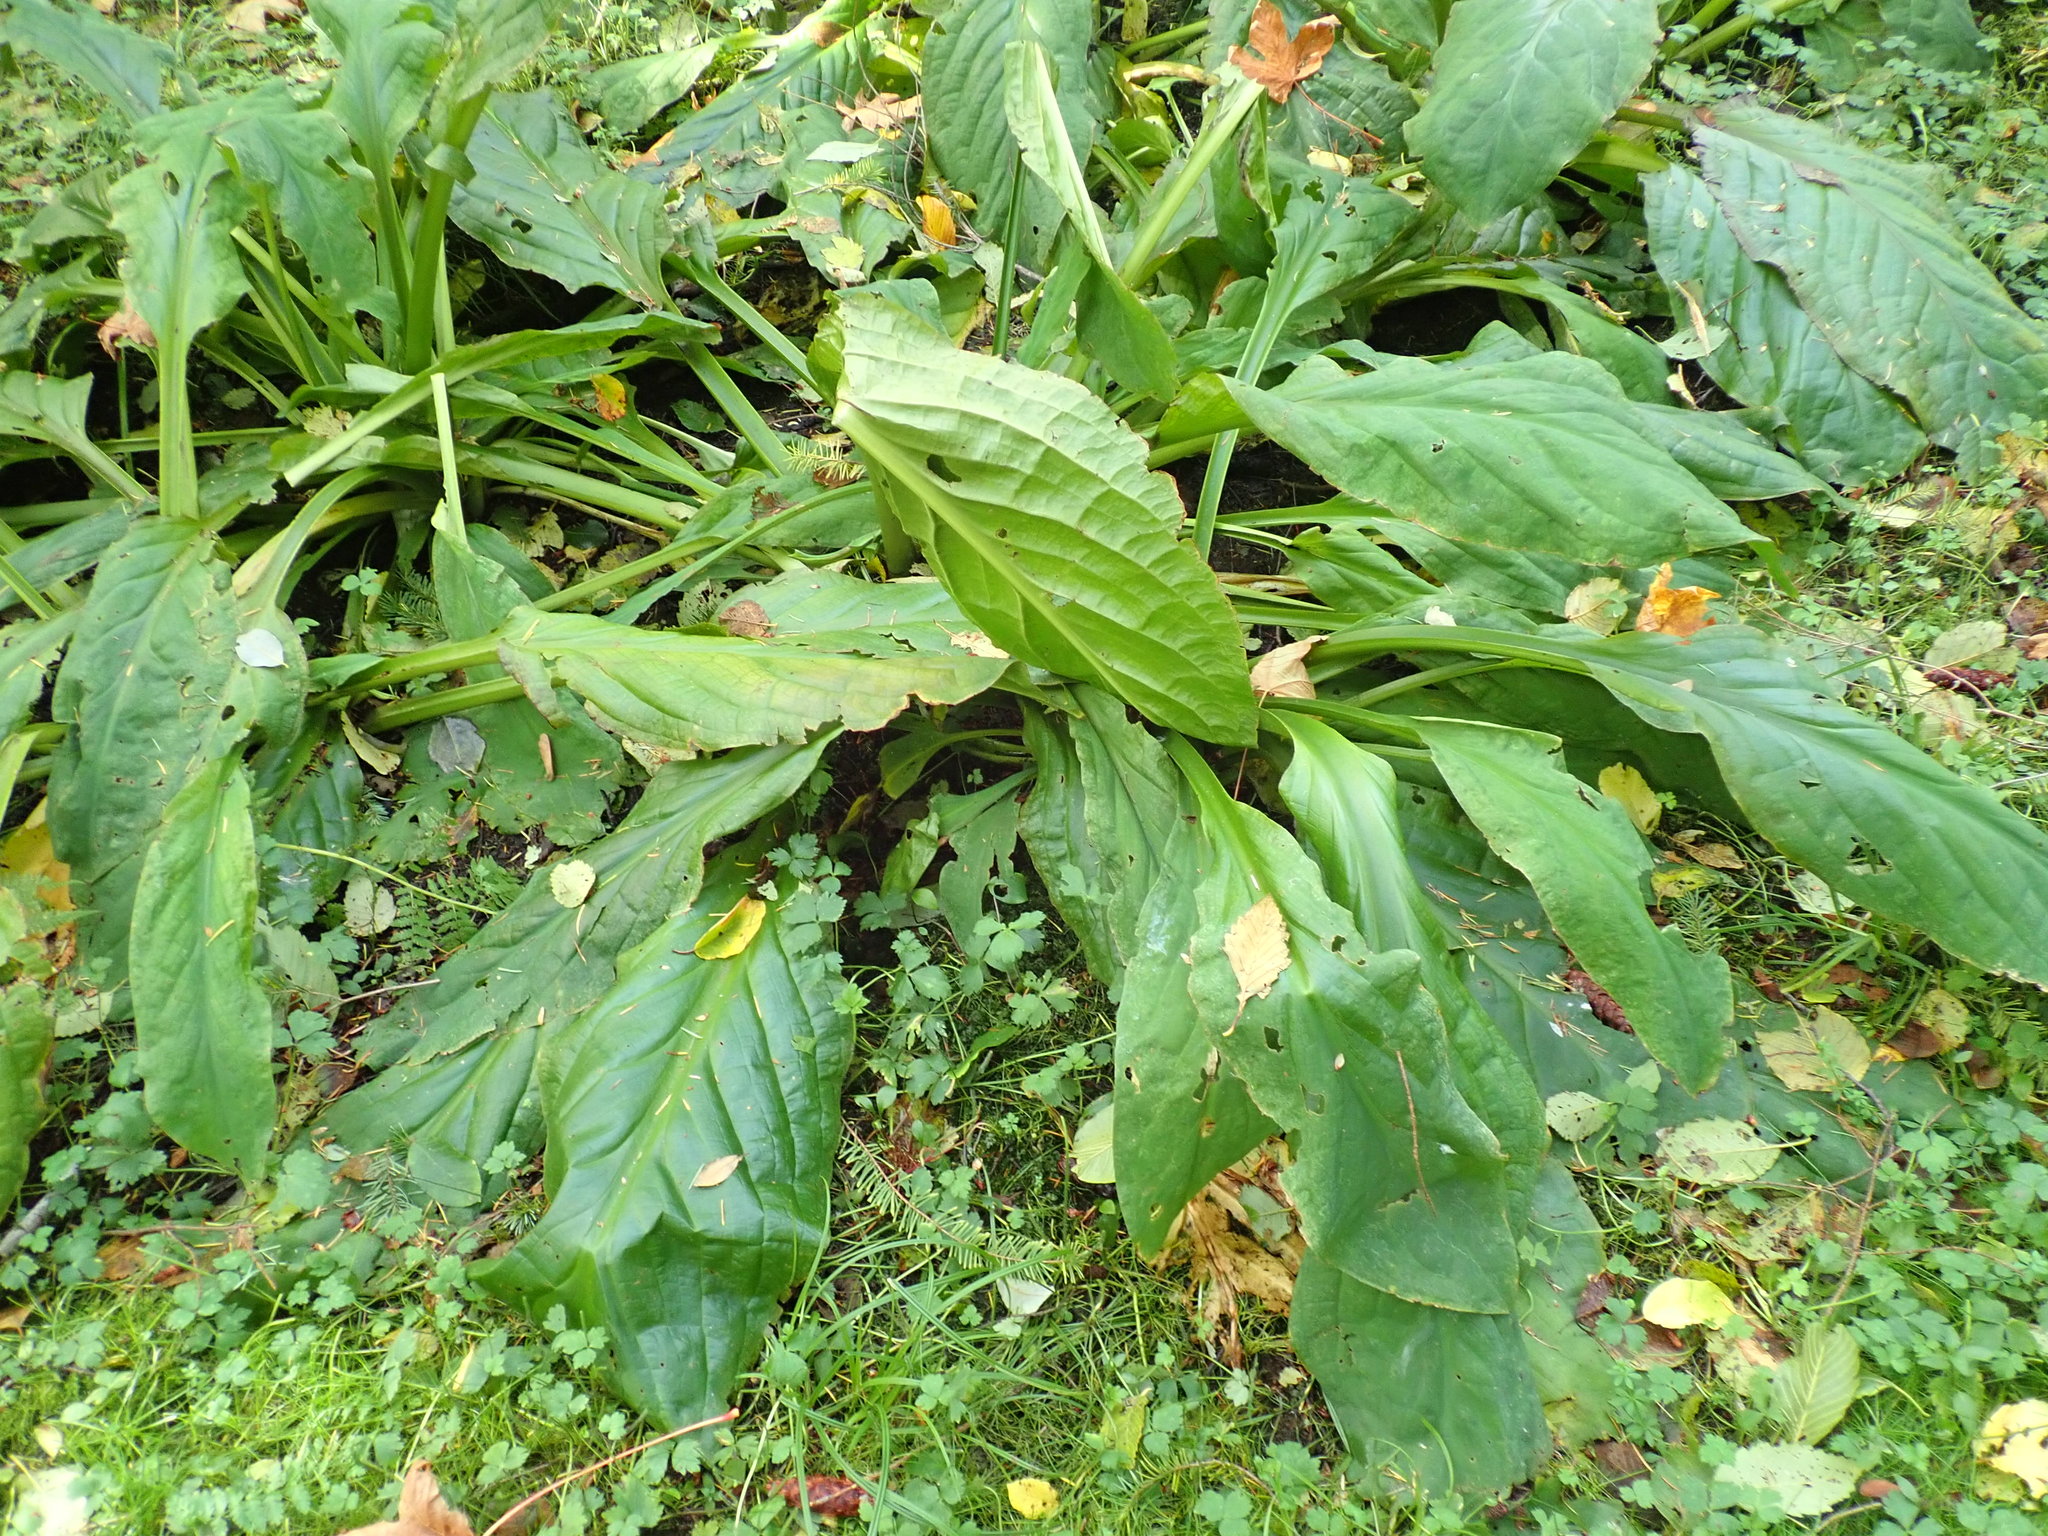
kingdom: Plantae
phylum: Tracheophyta
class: Liliopsida
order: Alismatales
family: Araceae
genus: Lysichiton
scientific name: Lysichiton americanus
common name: American skunk cabbage
